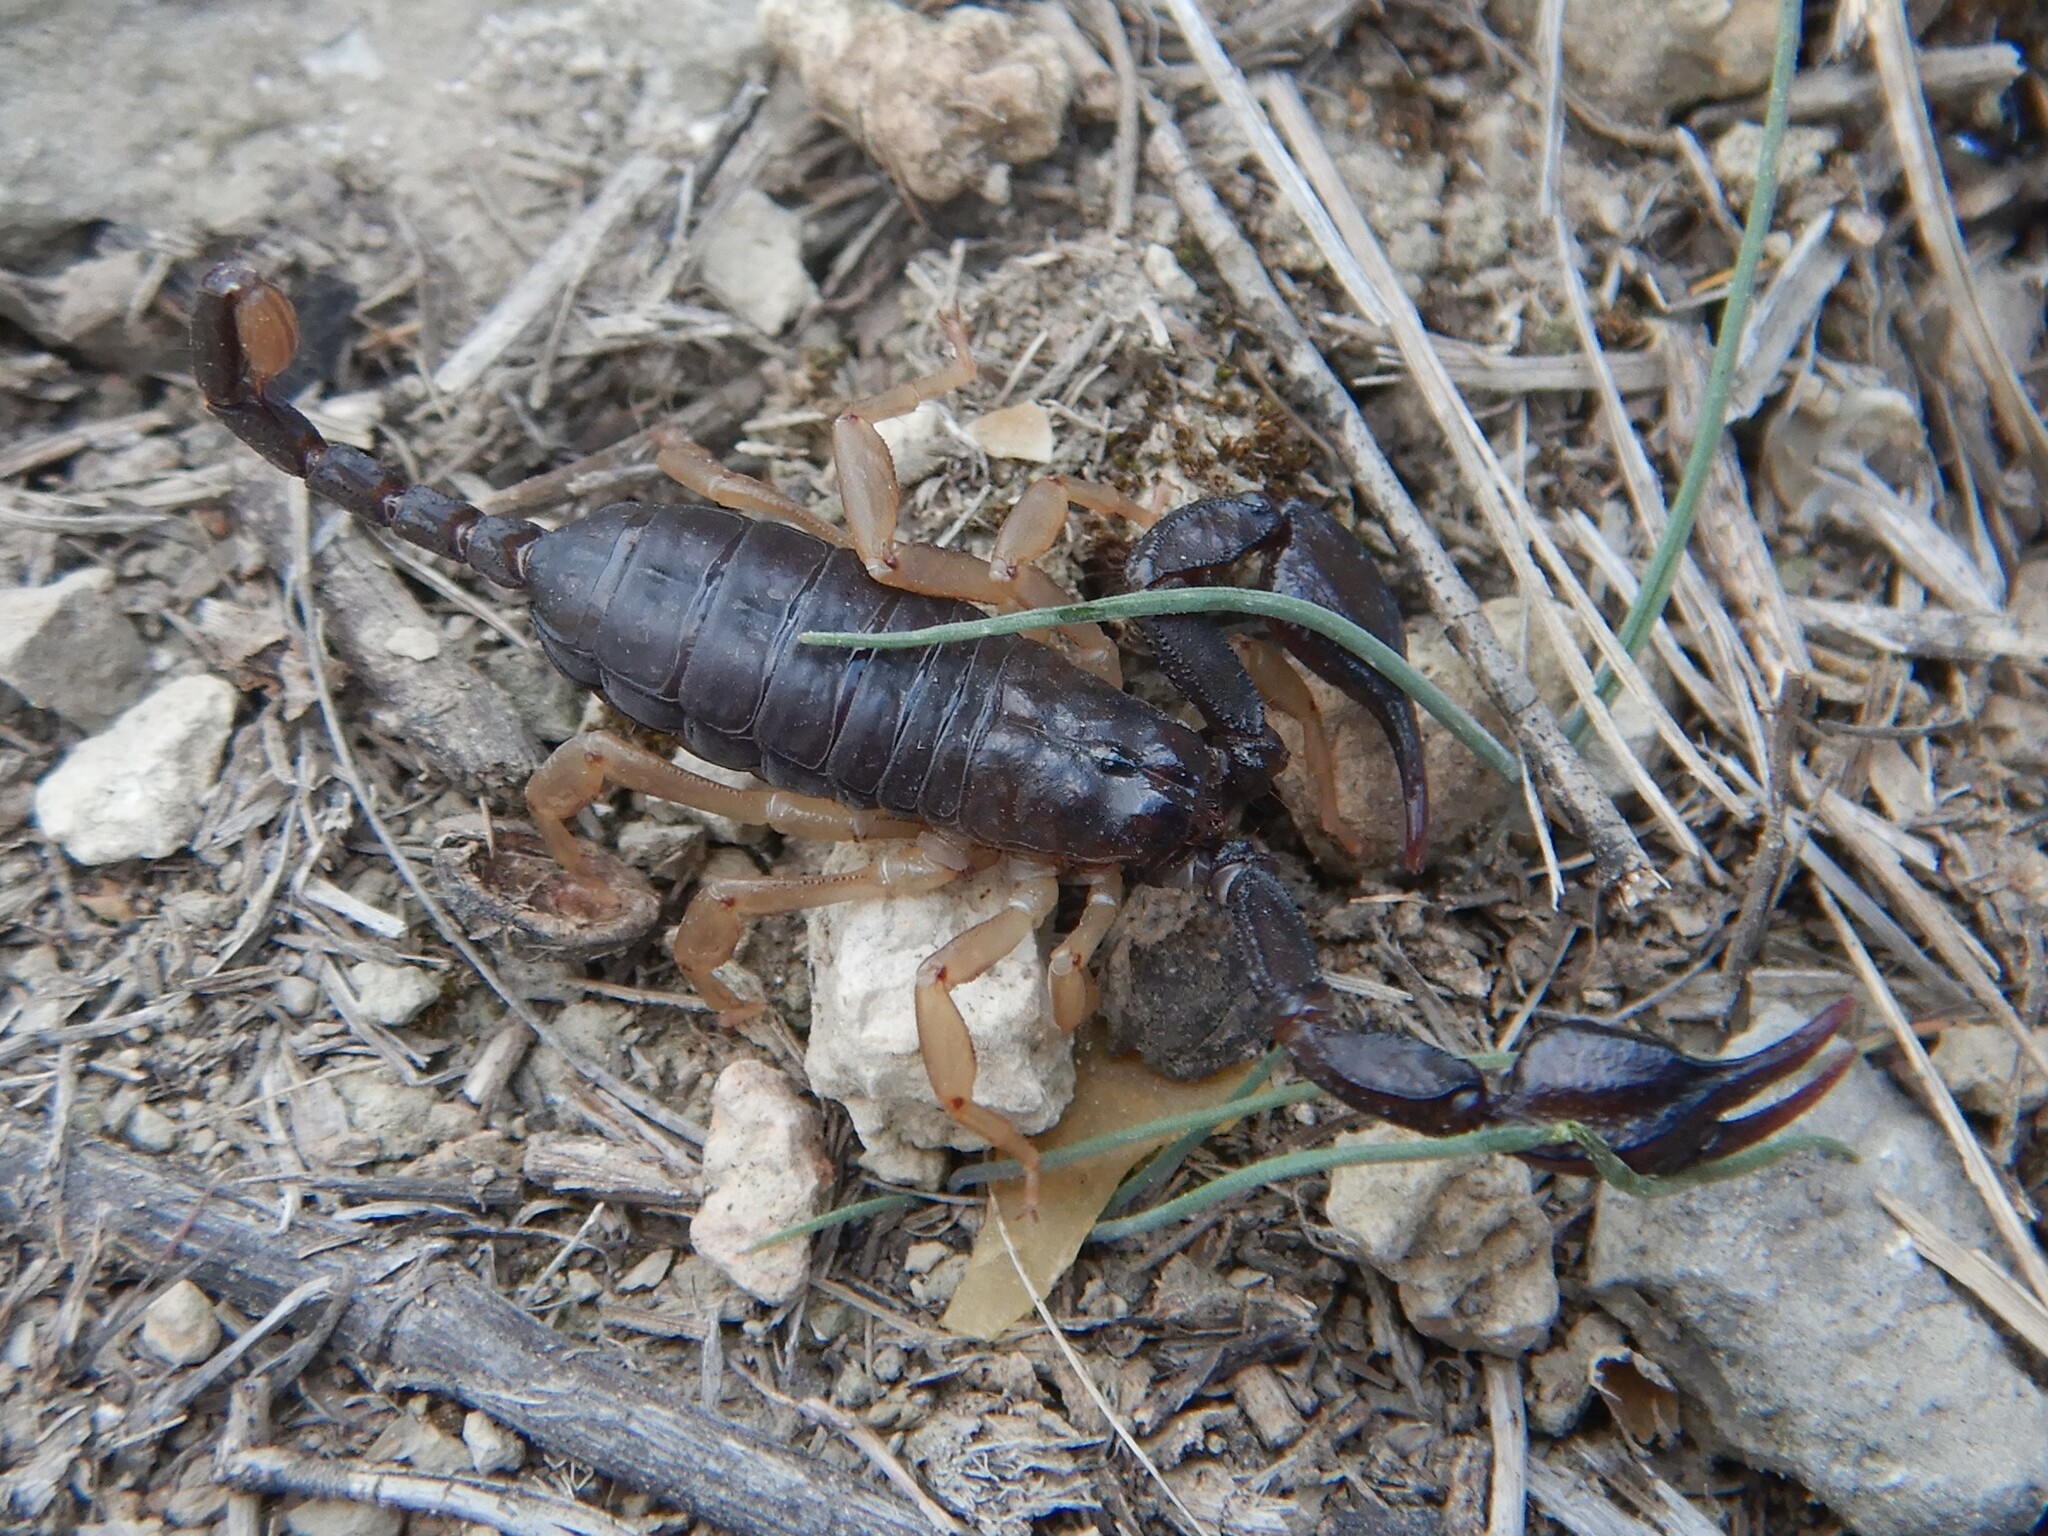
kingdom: Animalia
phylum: Arthropoda
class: Arachnida
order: Scorpiones
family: Euscorpiidae
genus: Euscorpius
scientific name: Euscorpius flavicaudis
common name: European yellow-tailed scorpion
